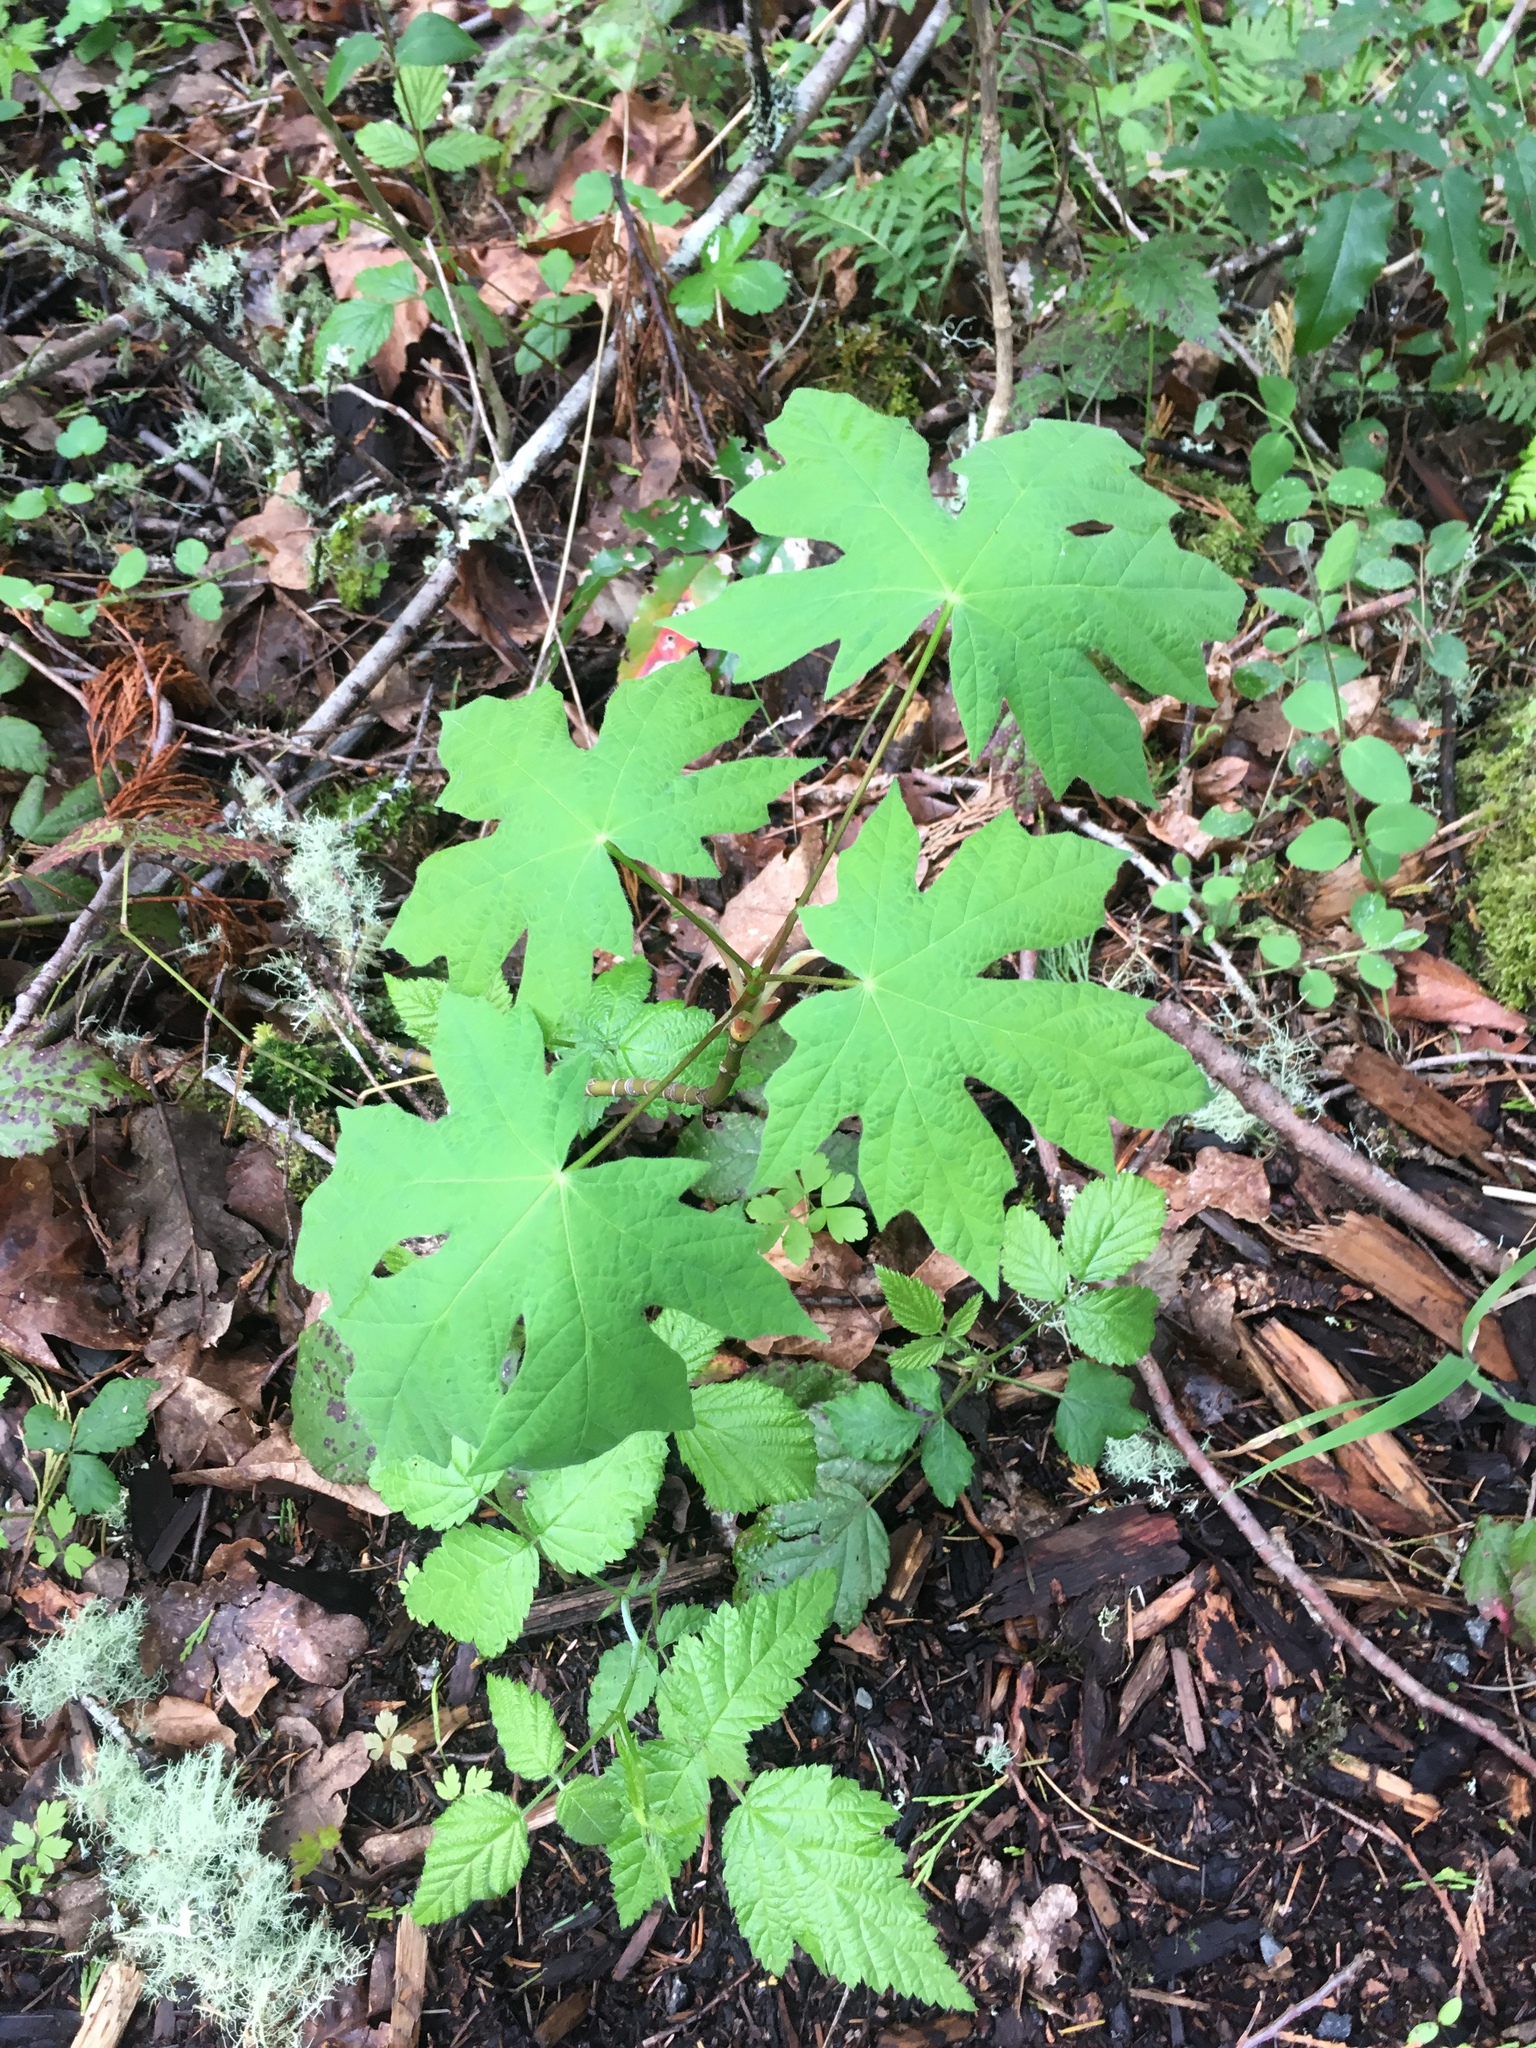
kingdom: Plantae
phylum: Tracheophyta
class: Magnoliopsida
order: Sapindales
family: Sapindaceae
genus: Acer
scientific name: Acer macrophyllum
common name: Oregon maple
